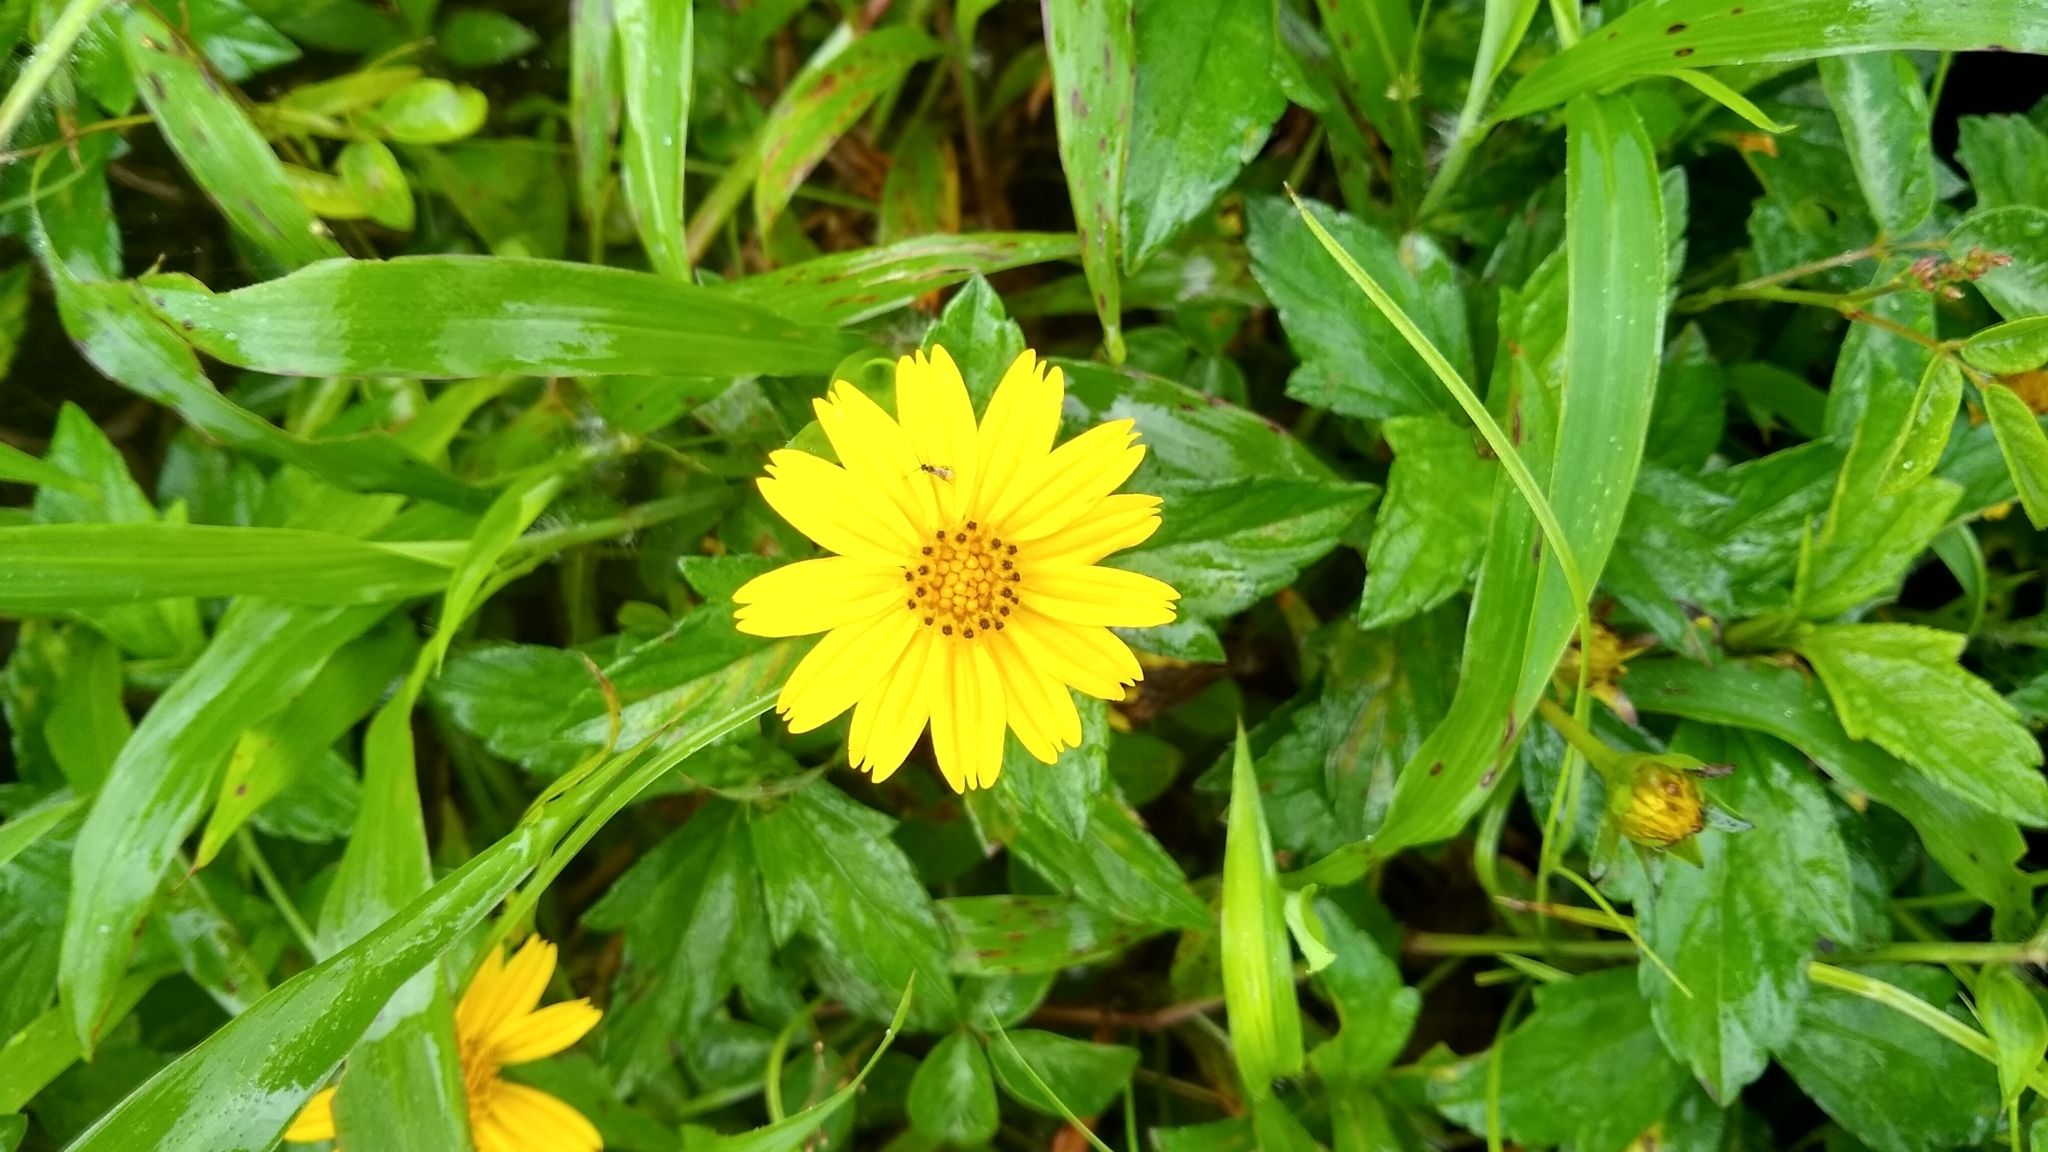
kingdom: Plantae
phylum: Tracheophyta
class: Magnoliopsida
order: Asterales
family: Asteraceae
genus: Sphagneticola
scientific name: Sphagneticola trilobata
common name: Bay biscayne creeping-oxeye
